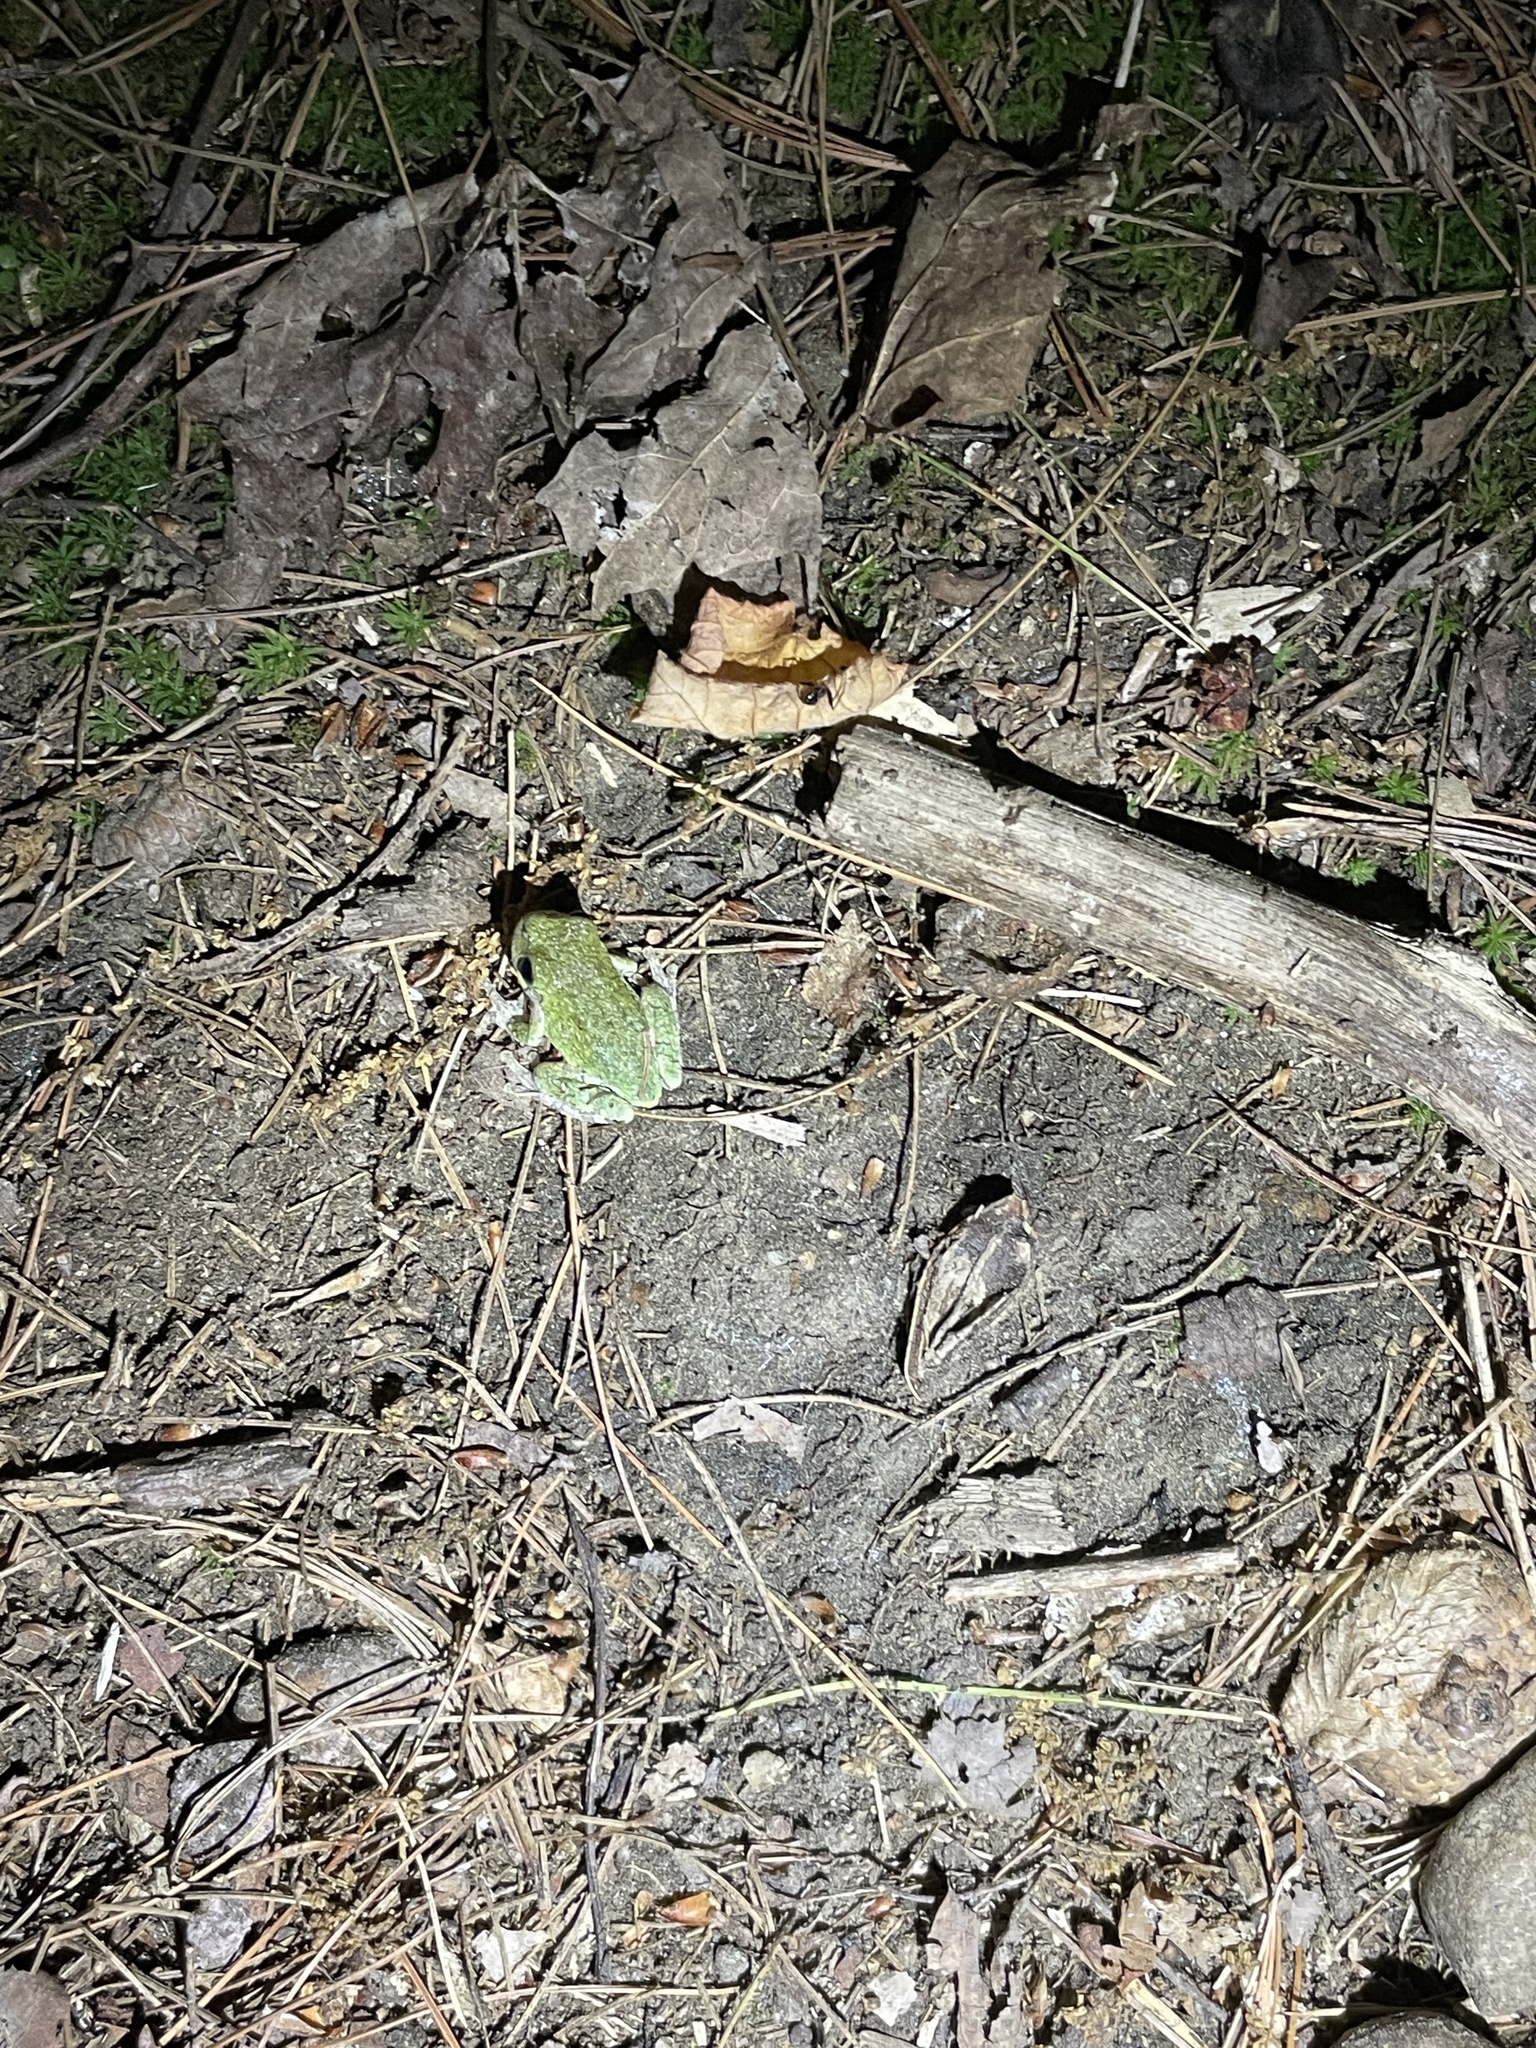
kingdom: Animalia
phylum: Chordata
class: Amphibia
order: Anura
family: Hylidae
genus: Dryophytes
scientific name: Dryophytes versicolor
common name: Gray treefrog
